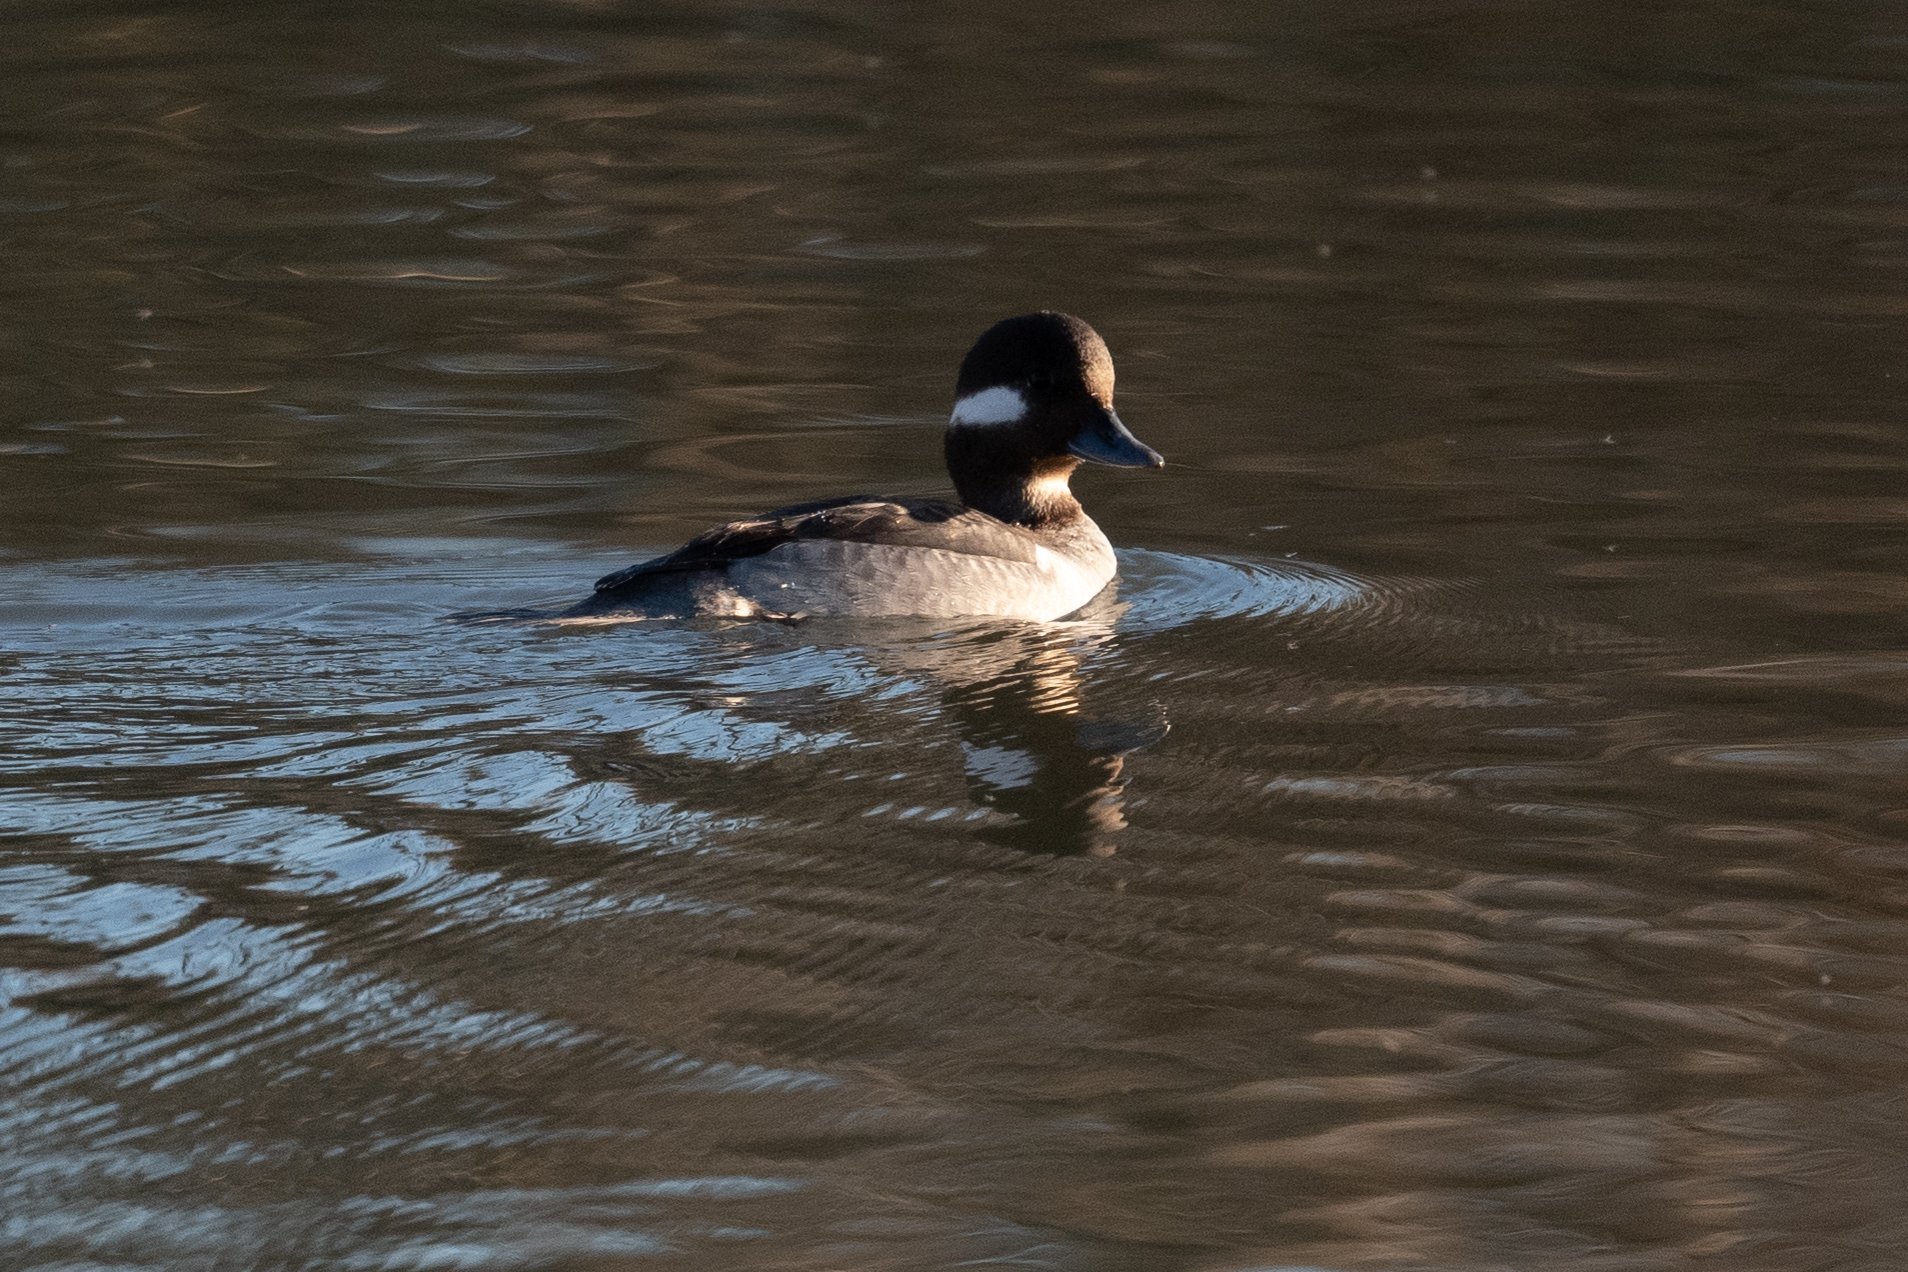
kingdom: Animalia
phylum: Chordata
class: Aves
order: Anseriformes
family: Anatidae
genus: Bucephala
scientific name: Bucephala albeola
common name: Bufflehead
